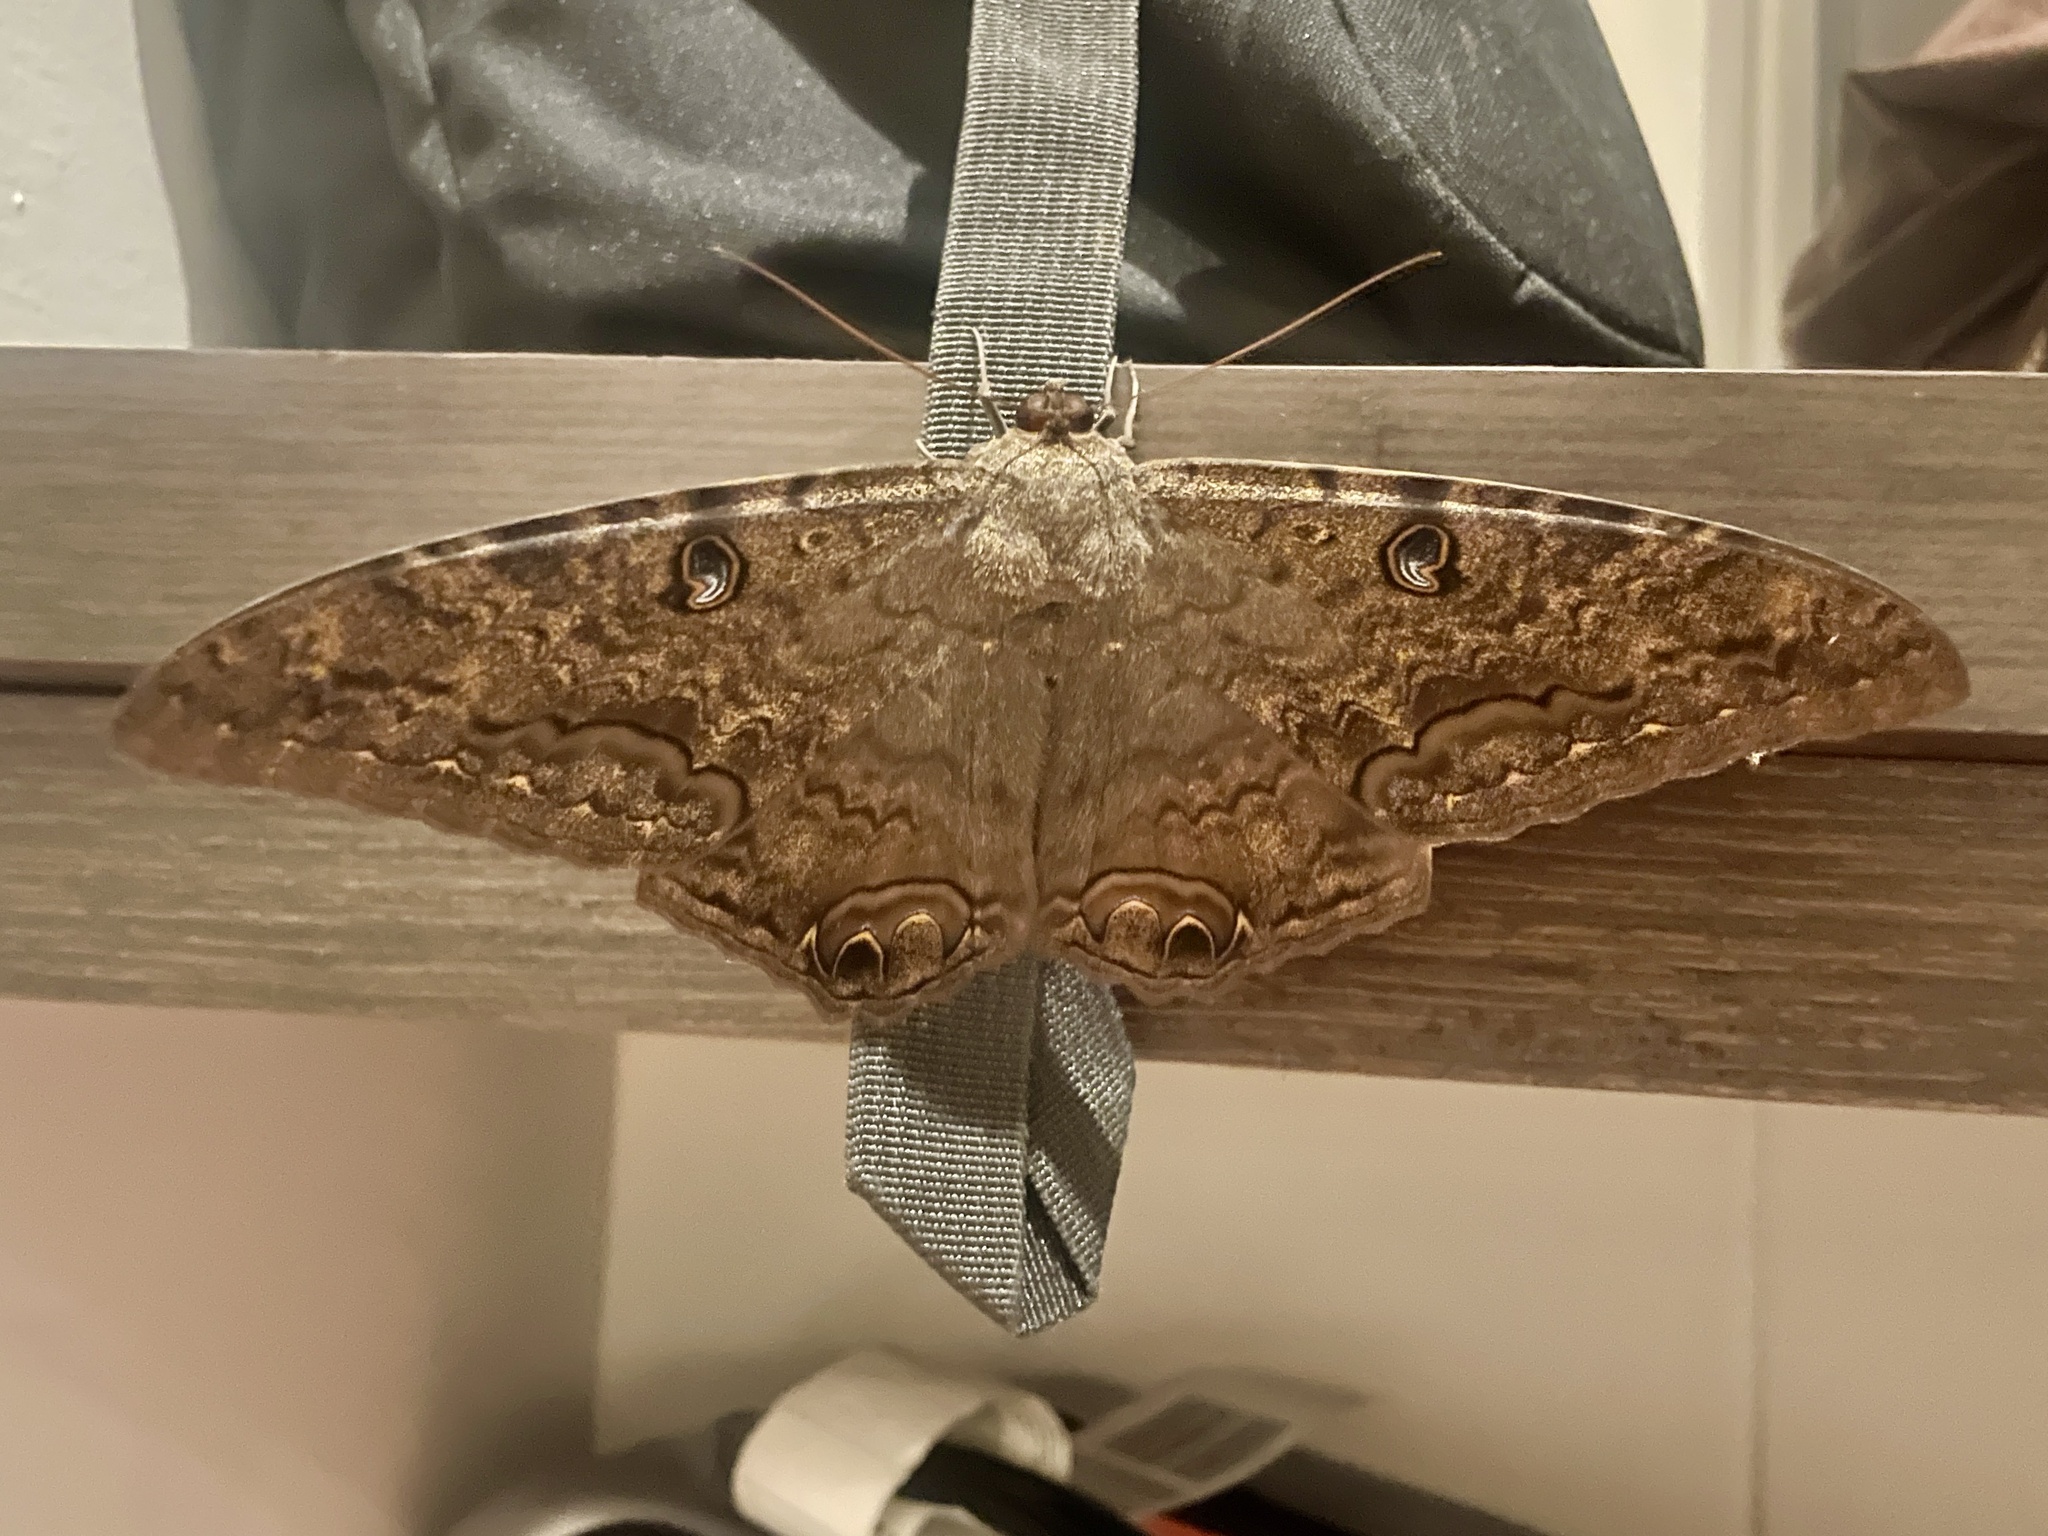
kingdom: Animalia
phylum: Arthropoda
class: Insecta
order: Lepidoptera
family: Erebidae
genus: Ascalapha
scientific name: Ascalapha odorata
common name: Black witch
